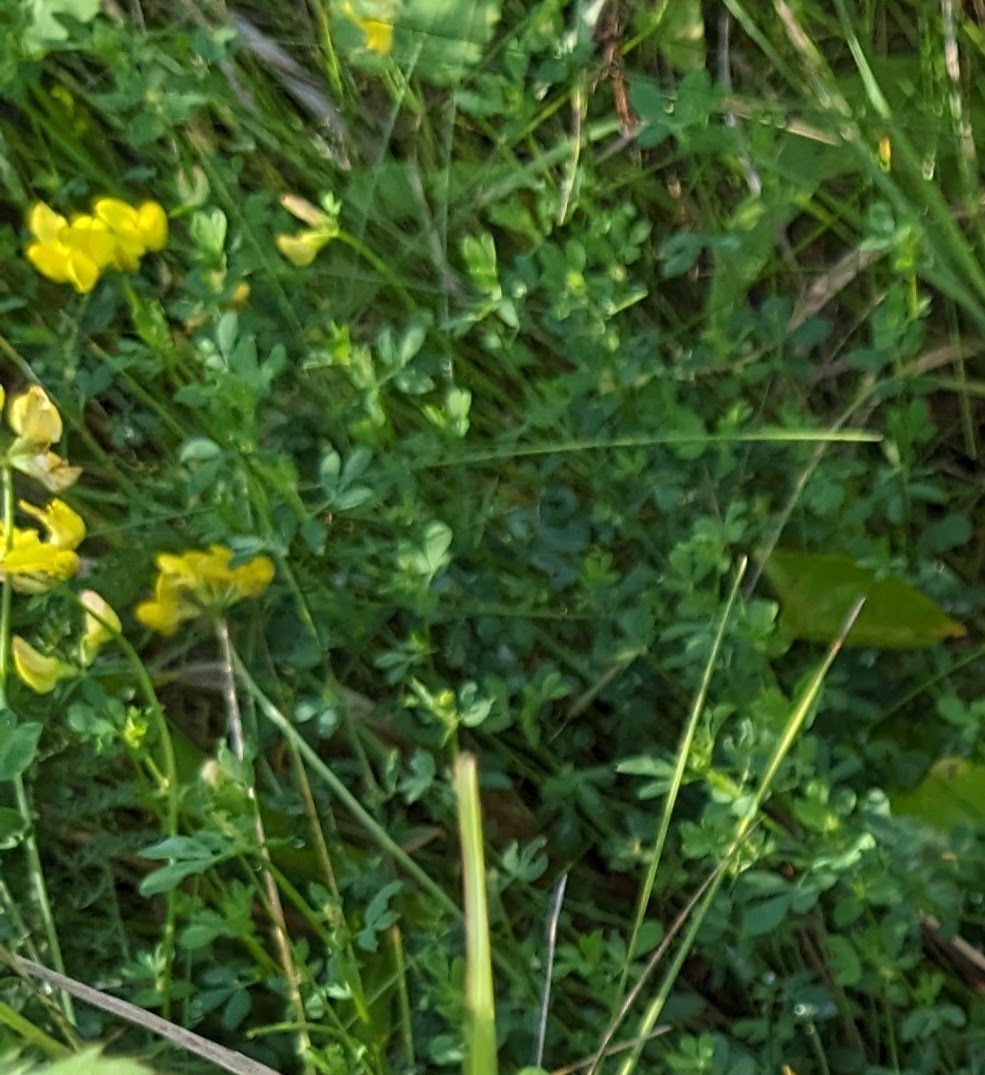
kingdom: Plantae
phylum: Tracheophyta
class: Magnoliopsida
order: Fabales
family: Fabaceae
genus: Lotus
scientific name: Lotus corniculatus
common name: Common bird's-foot-trefoil
